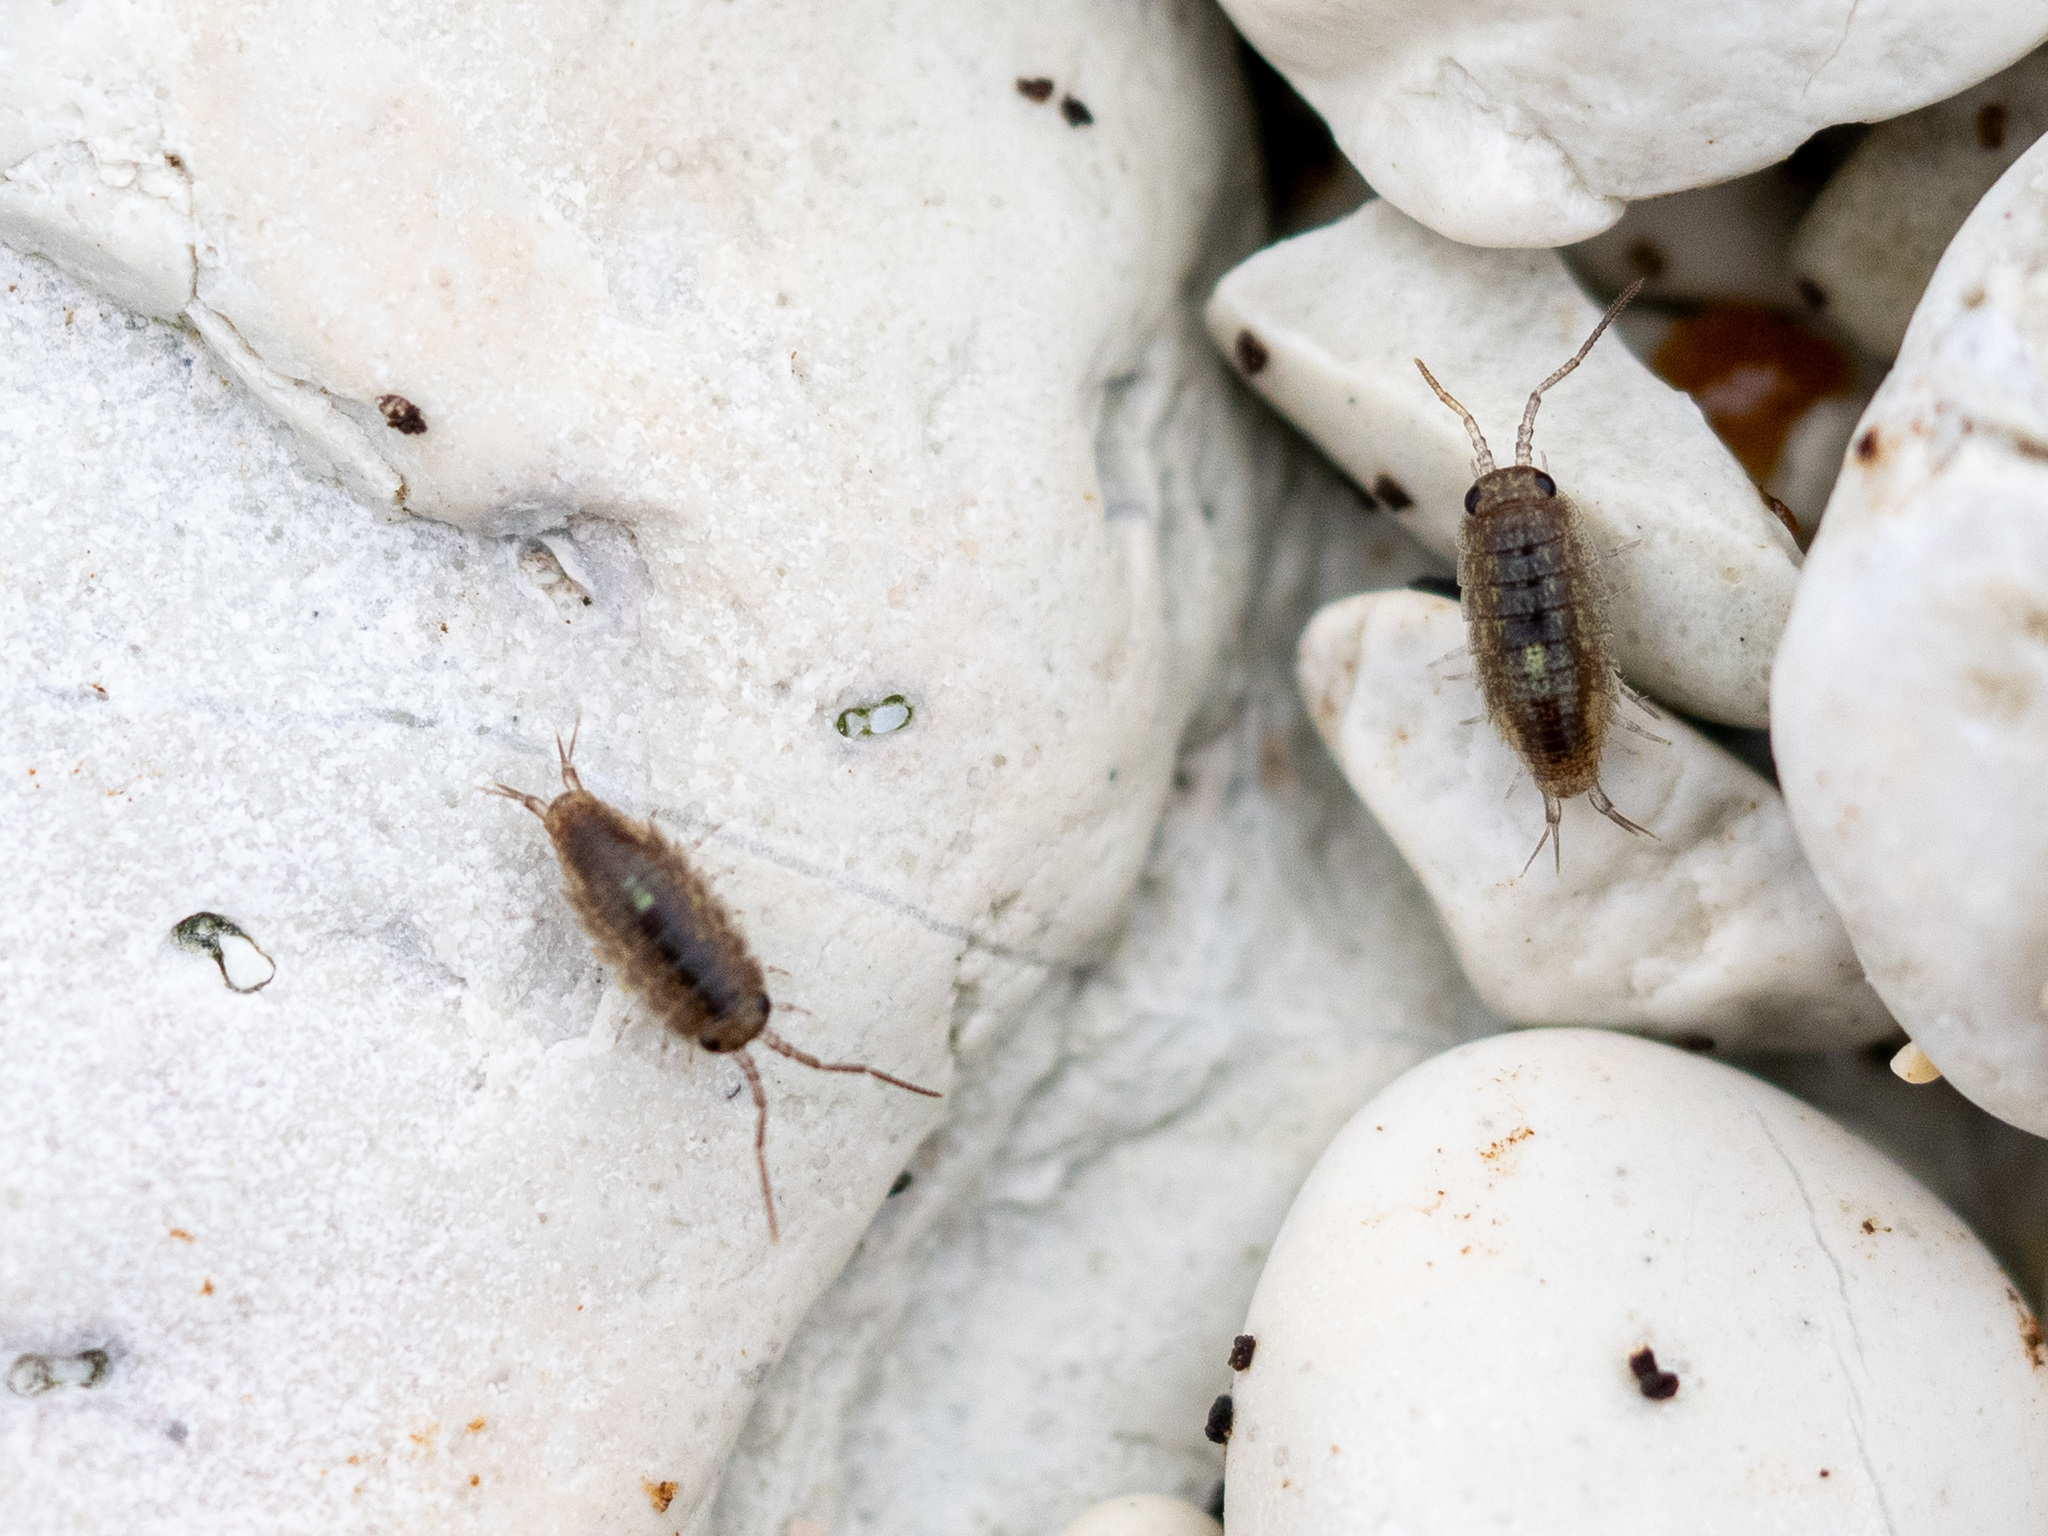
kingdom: Animalia
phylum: Arthropoda
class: Malacostraca
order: Isopoda
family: Ligiidae
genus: Ligia
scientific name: Ligia novizealandiae
